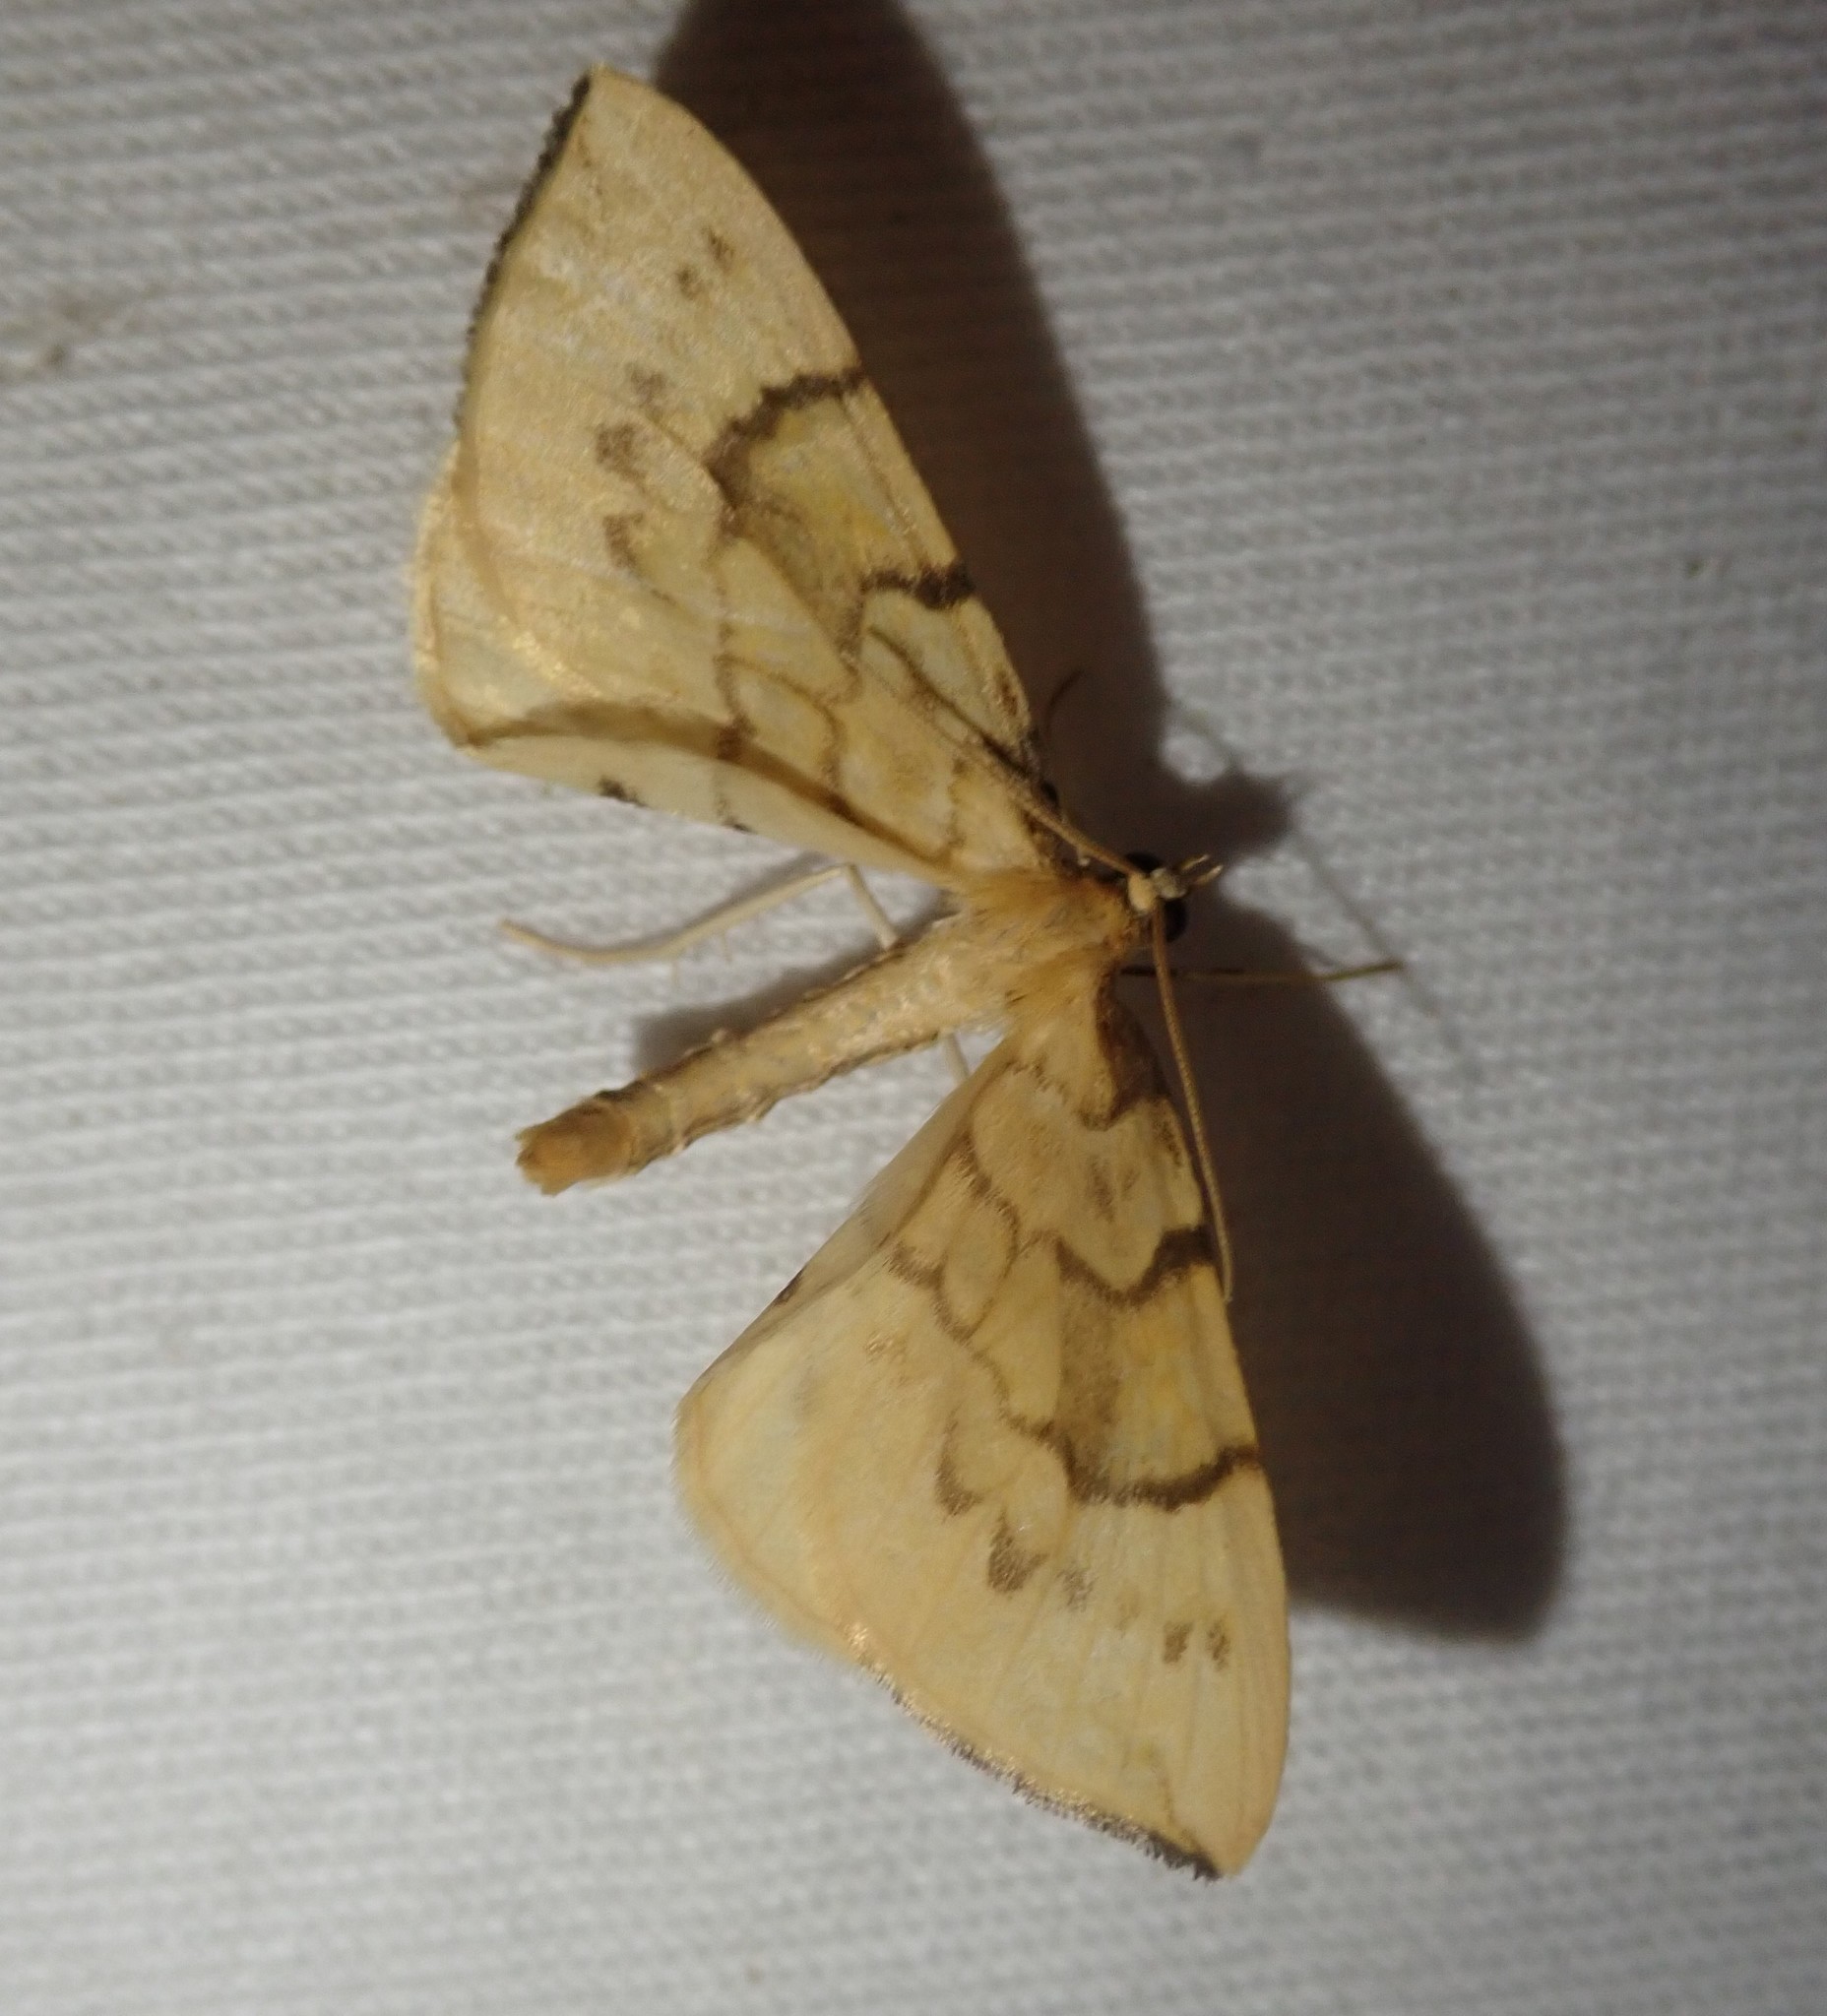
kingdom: Animalia
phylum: Arthropoda
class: Insecta
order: Lepidoptera
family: Geometridae
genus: Eulithis
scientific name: Eulithis pyraliata
